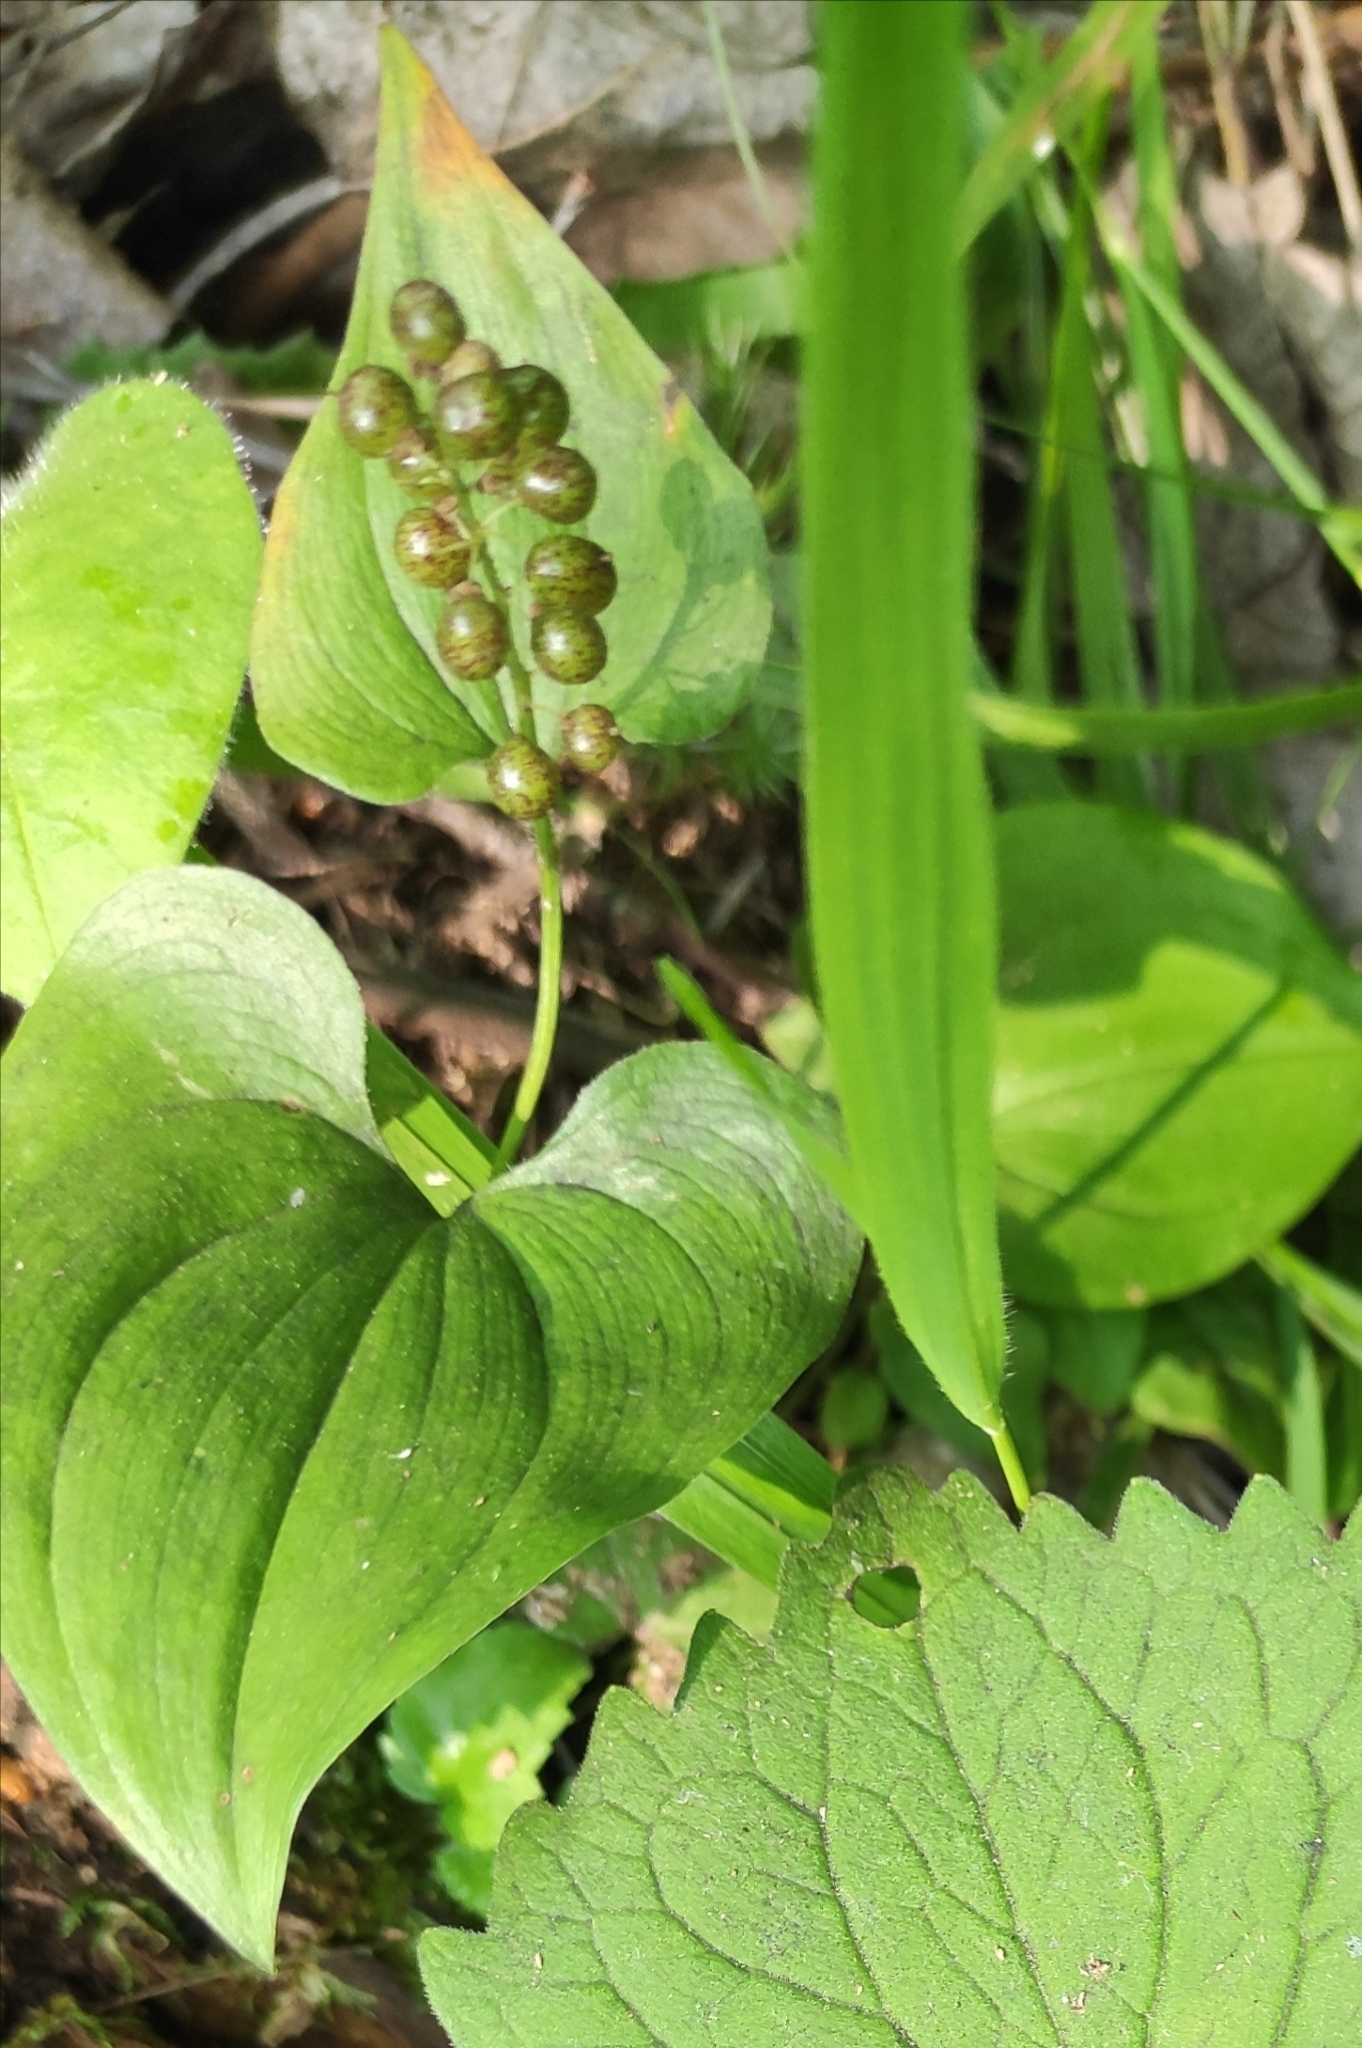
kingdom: Plantae
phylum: Tracheophyta
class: Liliopsida
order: Asparagales
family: Asparagaceae
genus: Maianthemum
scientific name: Maianthemum bifolium
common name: May lily
